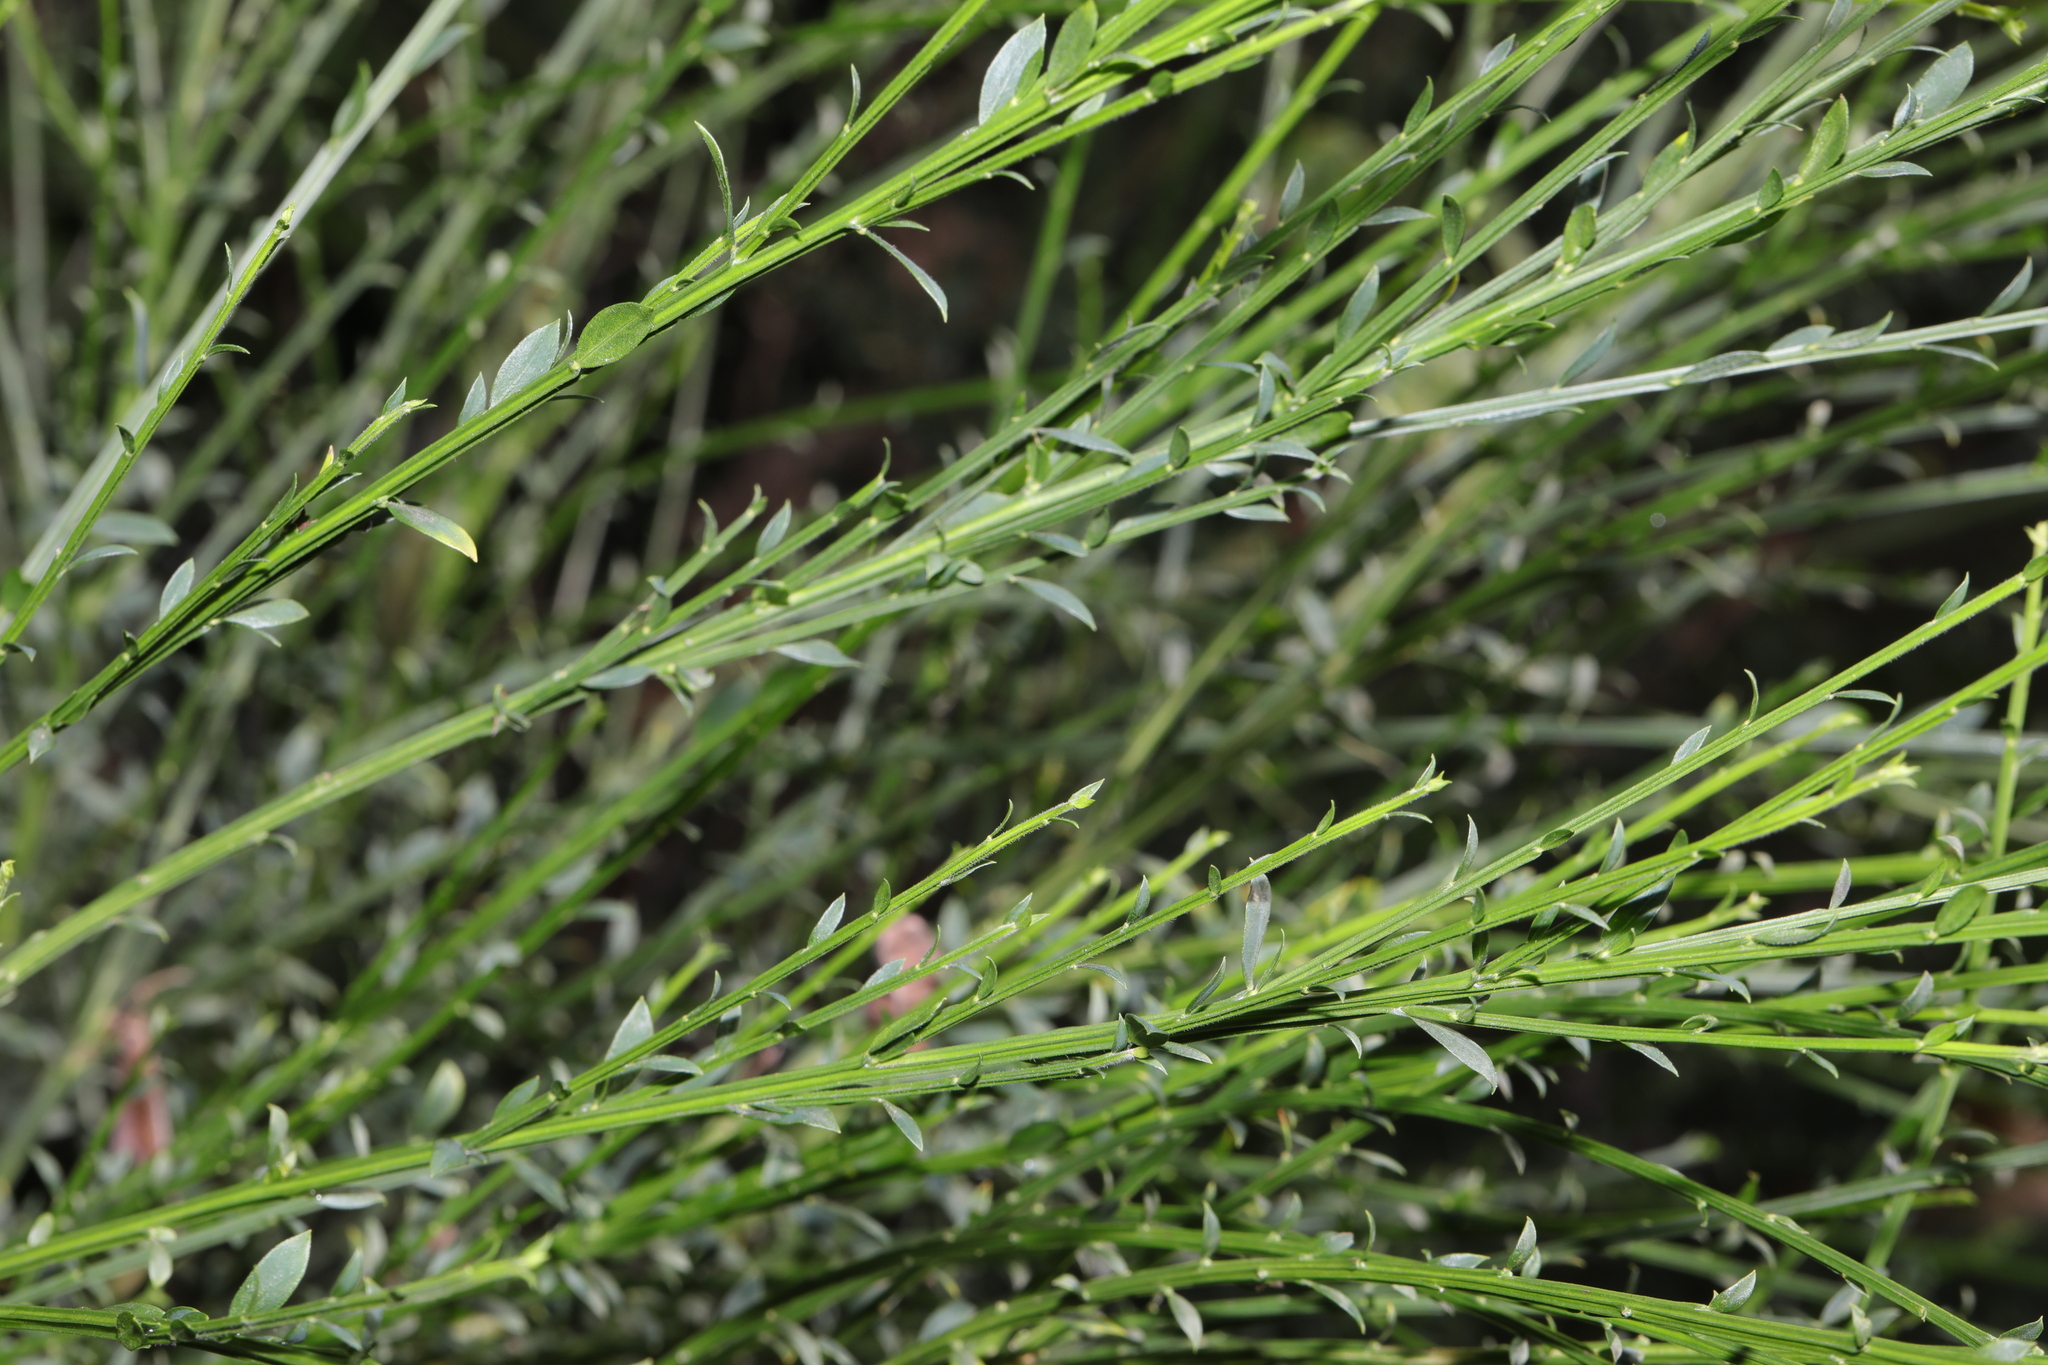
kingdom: Plantae
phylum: Tracheophyta
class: Magnoliopsida
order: Fabales
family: Fabaceae
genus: Cytisus
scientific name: Cytisus scoparius
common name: Scotch broom
